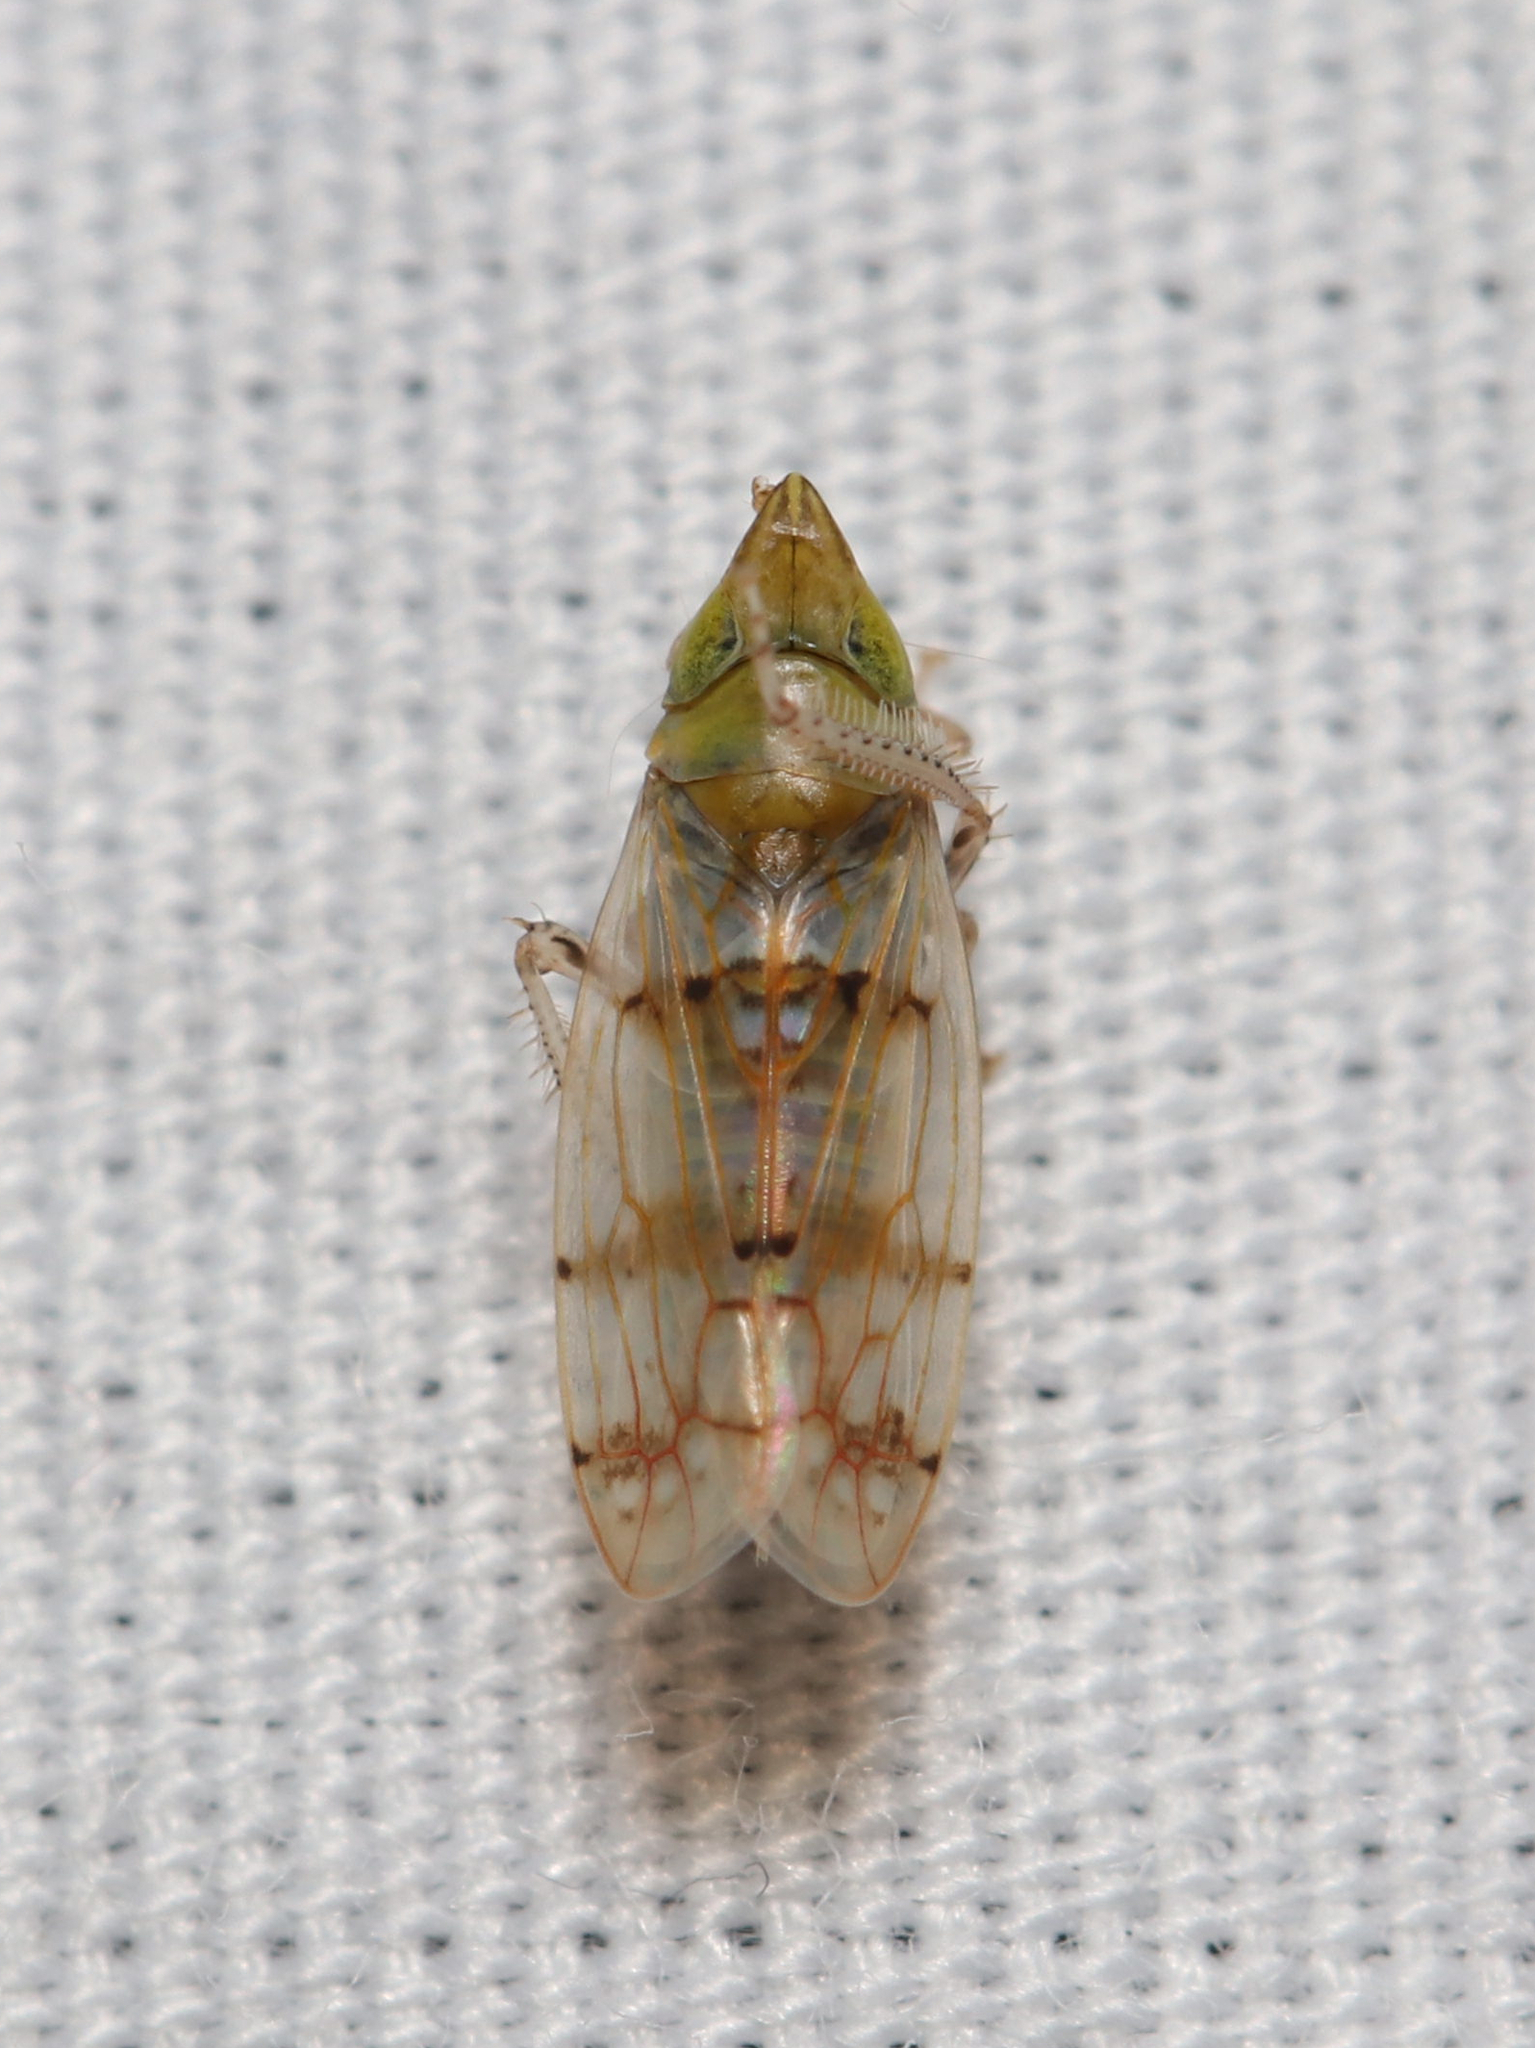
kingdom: Animalia
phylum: Arthropoda
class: Insecta
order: Hemiptera
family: Cicadellidae
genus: Japananus
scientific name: Japananus hyalinus
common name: The japanese maple leafhopper
